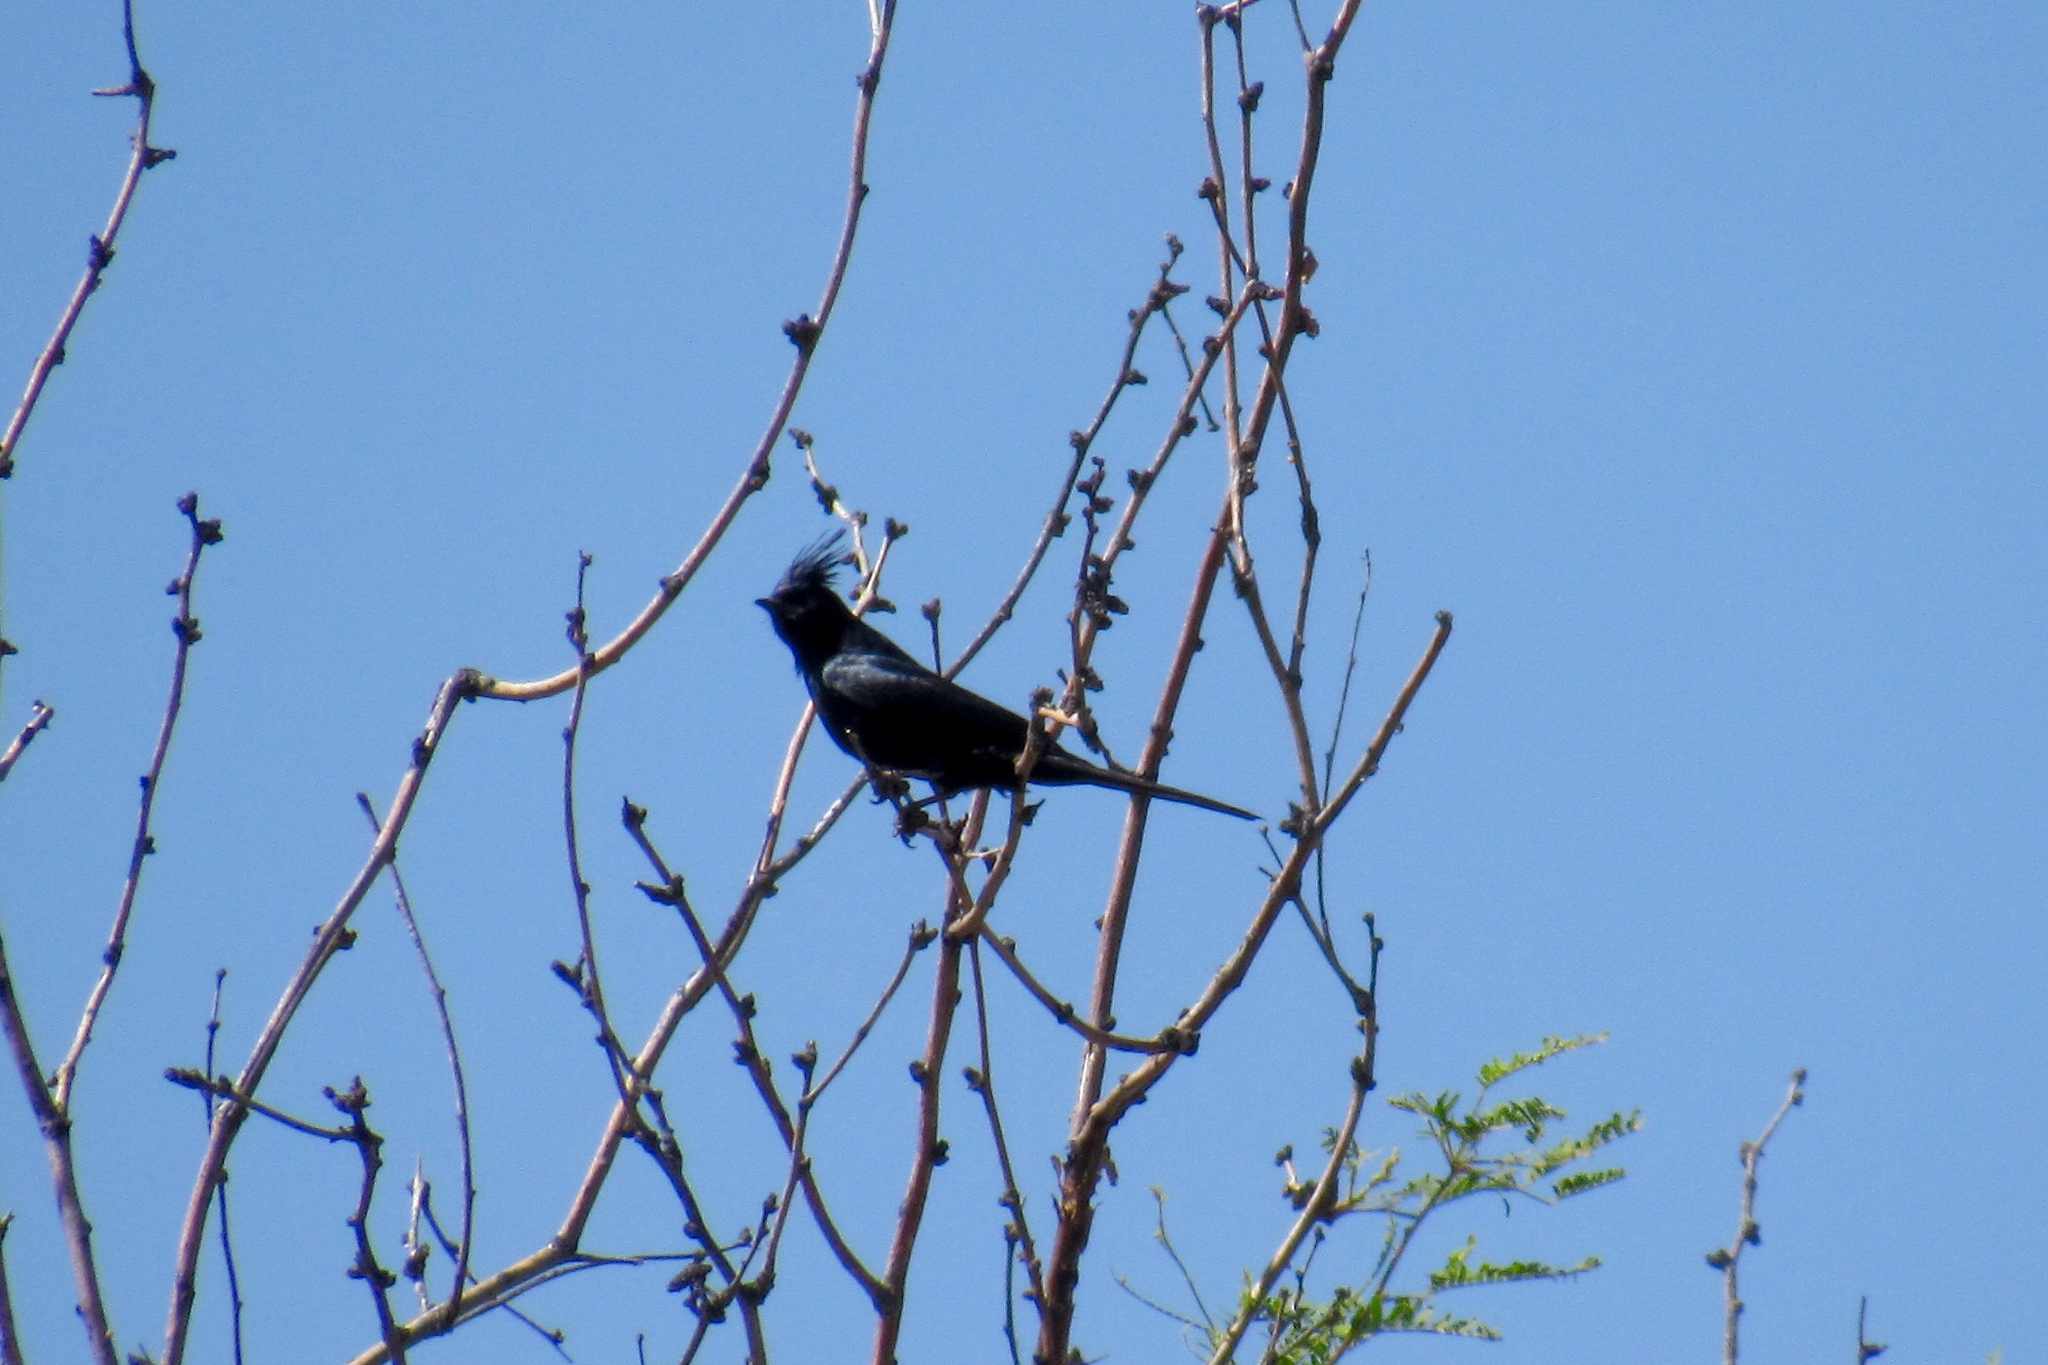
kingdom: Animalia
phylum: Chordata
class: Aves
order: Passeriformes
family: Ptilogonatidae
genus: Phainopepla
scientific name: Phainopepla nitens
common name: Phainopepla
